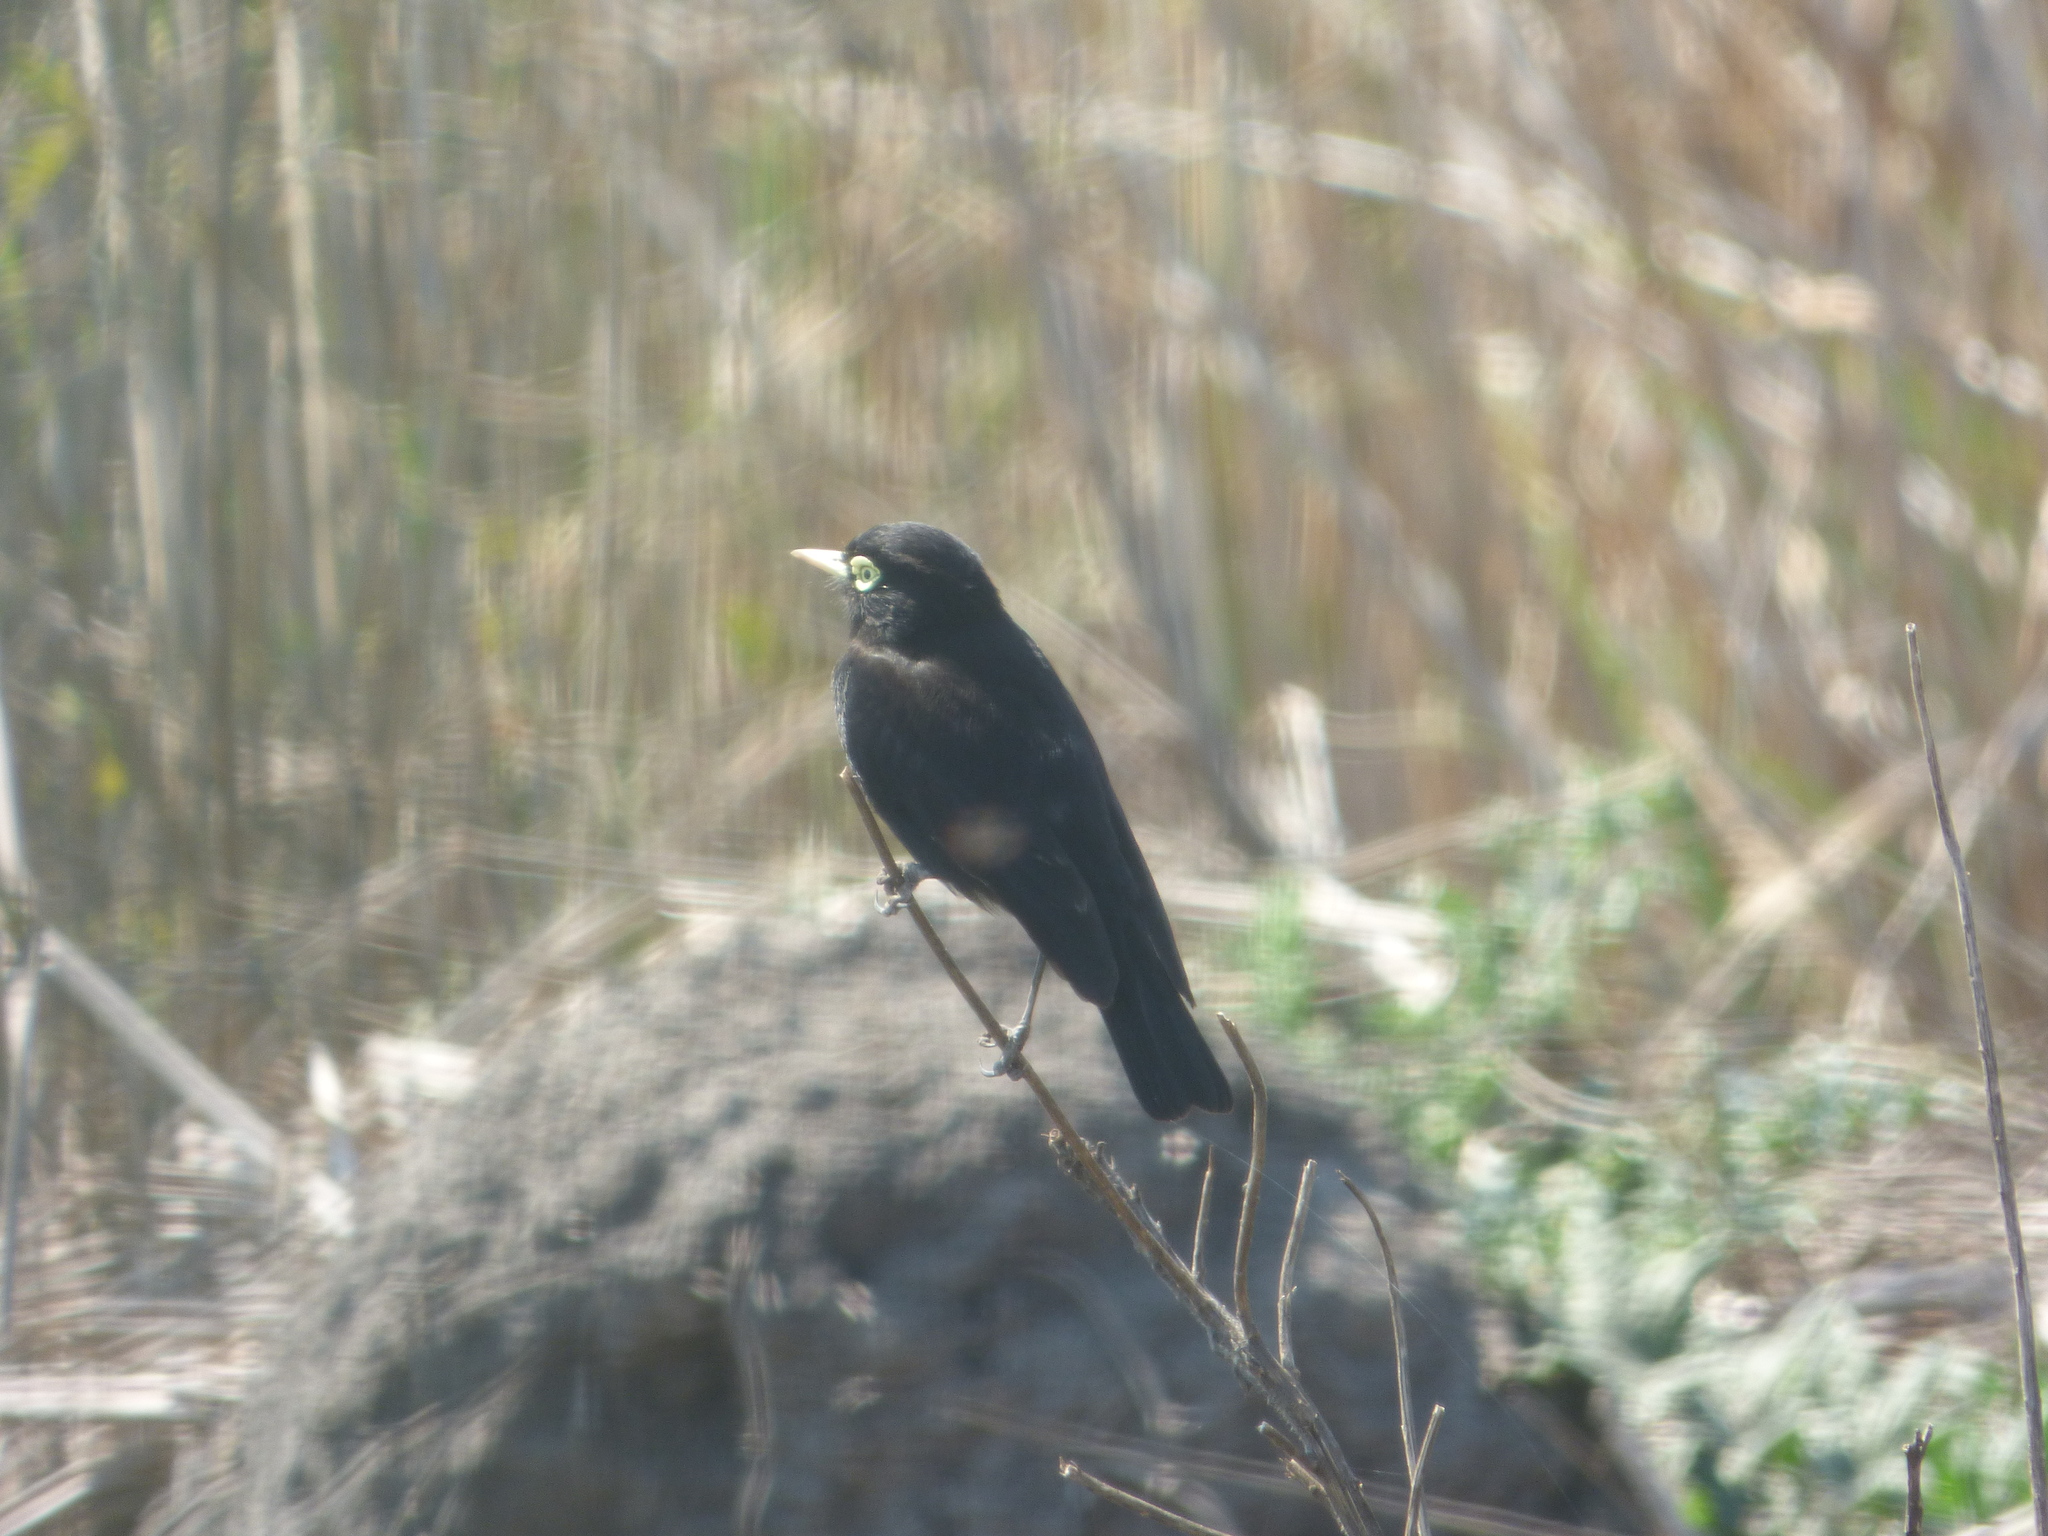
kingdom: Animalia
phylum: Chordata
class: Aves
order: Passeriformes
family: Tyrannidae
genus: Hymenops
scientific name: Hymenops perspicillatus
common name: Spectacled tyrant
